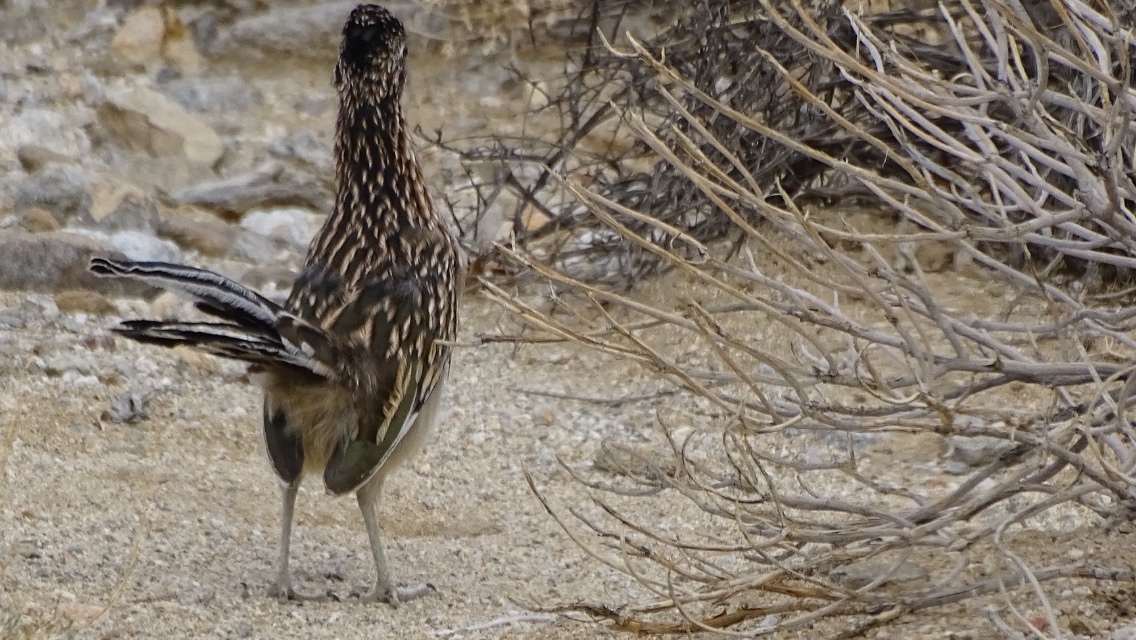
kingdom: Animalia
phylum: Chordata
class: Aves
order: Cuculiformes
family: Cuculidae
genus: Geococcyx
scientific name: Geococcyx californianus
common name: Greater roadrunner
